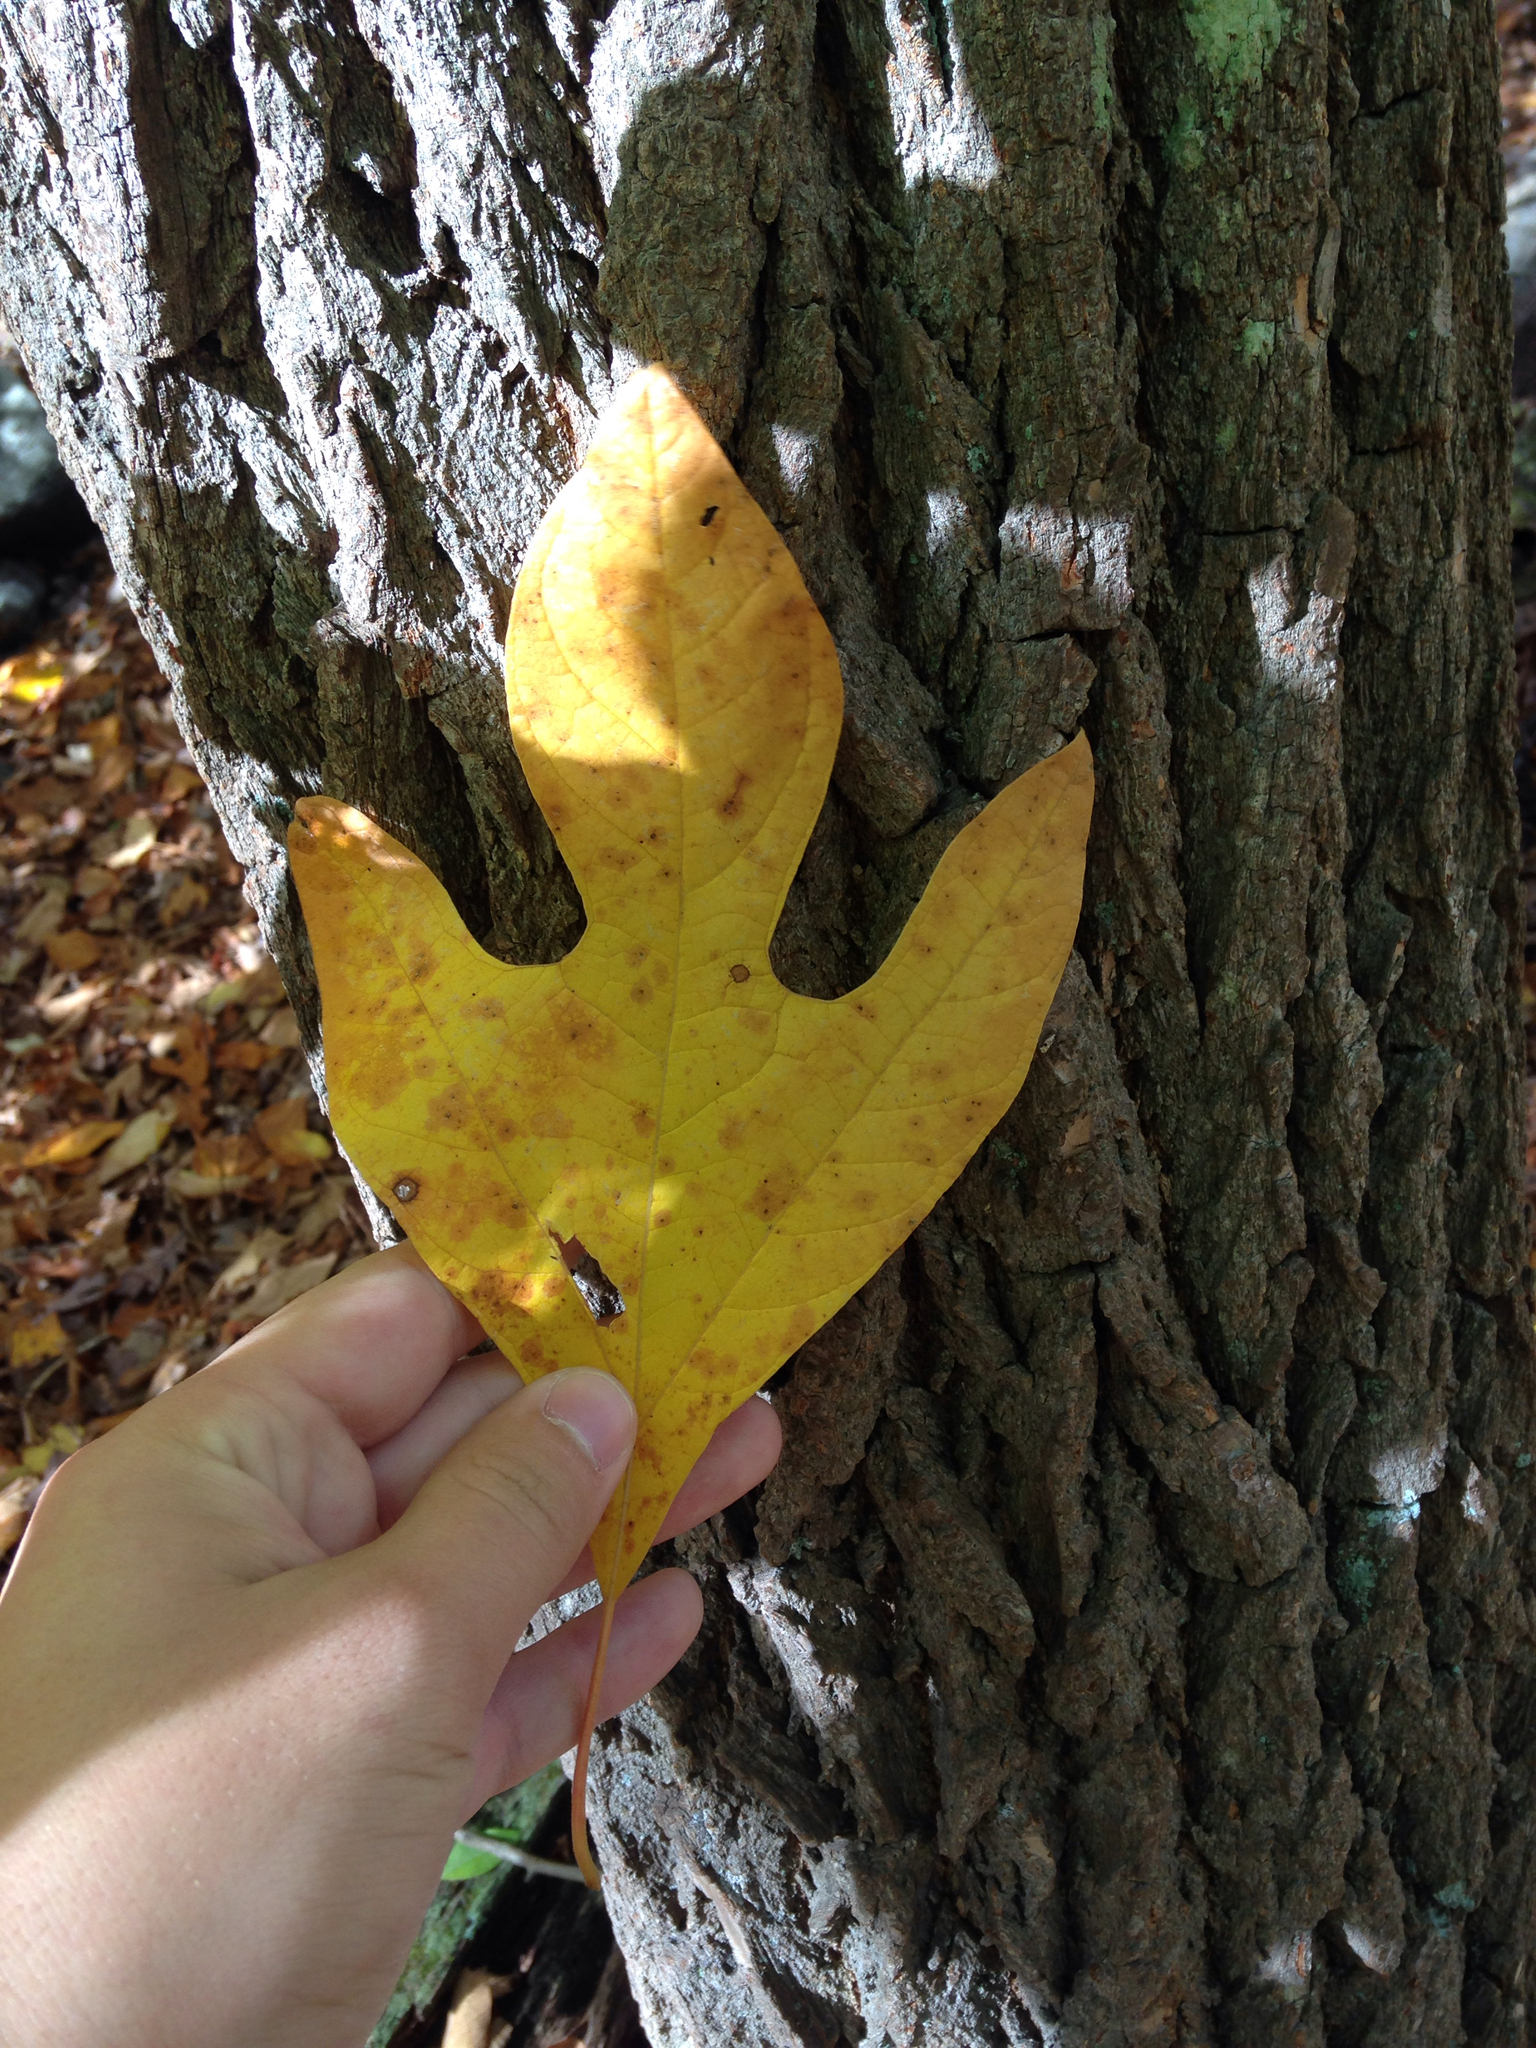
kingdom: Plantae
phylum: Tracheophyta
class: Magnoliopsida
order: Laurales
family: Lauraceae
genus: Sassafras
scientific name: Sassafras albidum
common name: Sassafras
